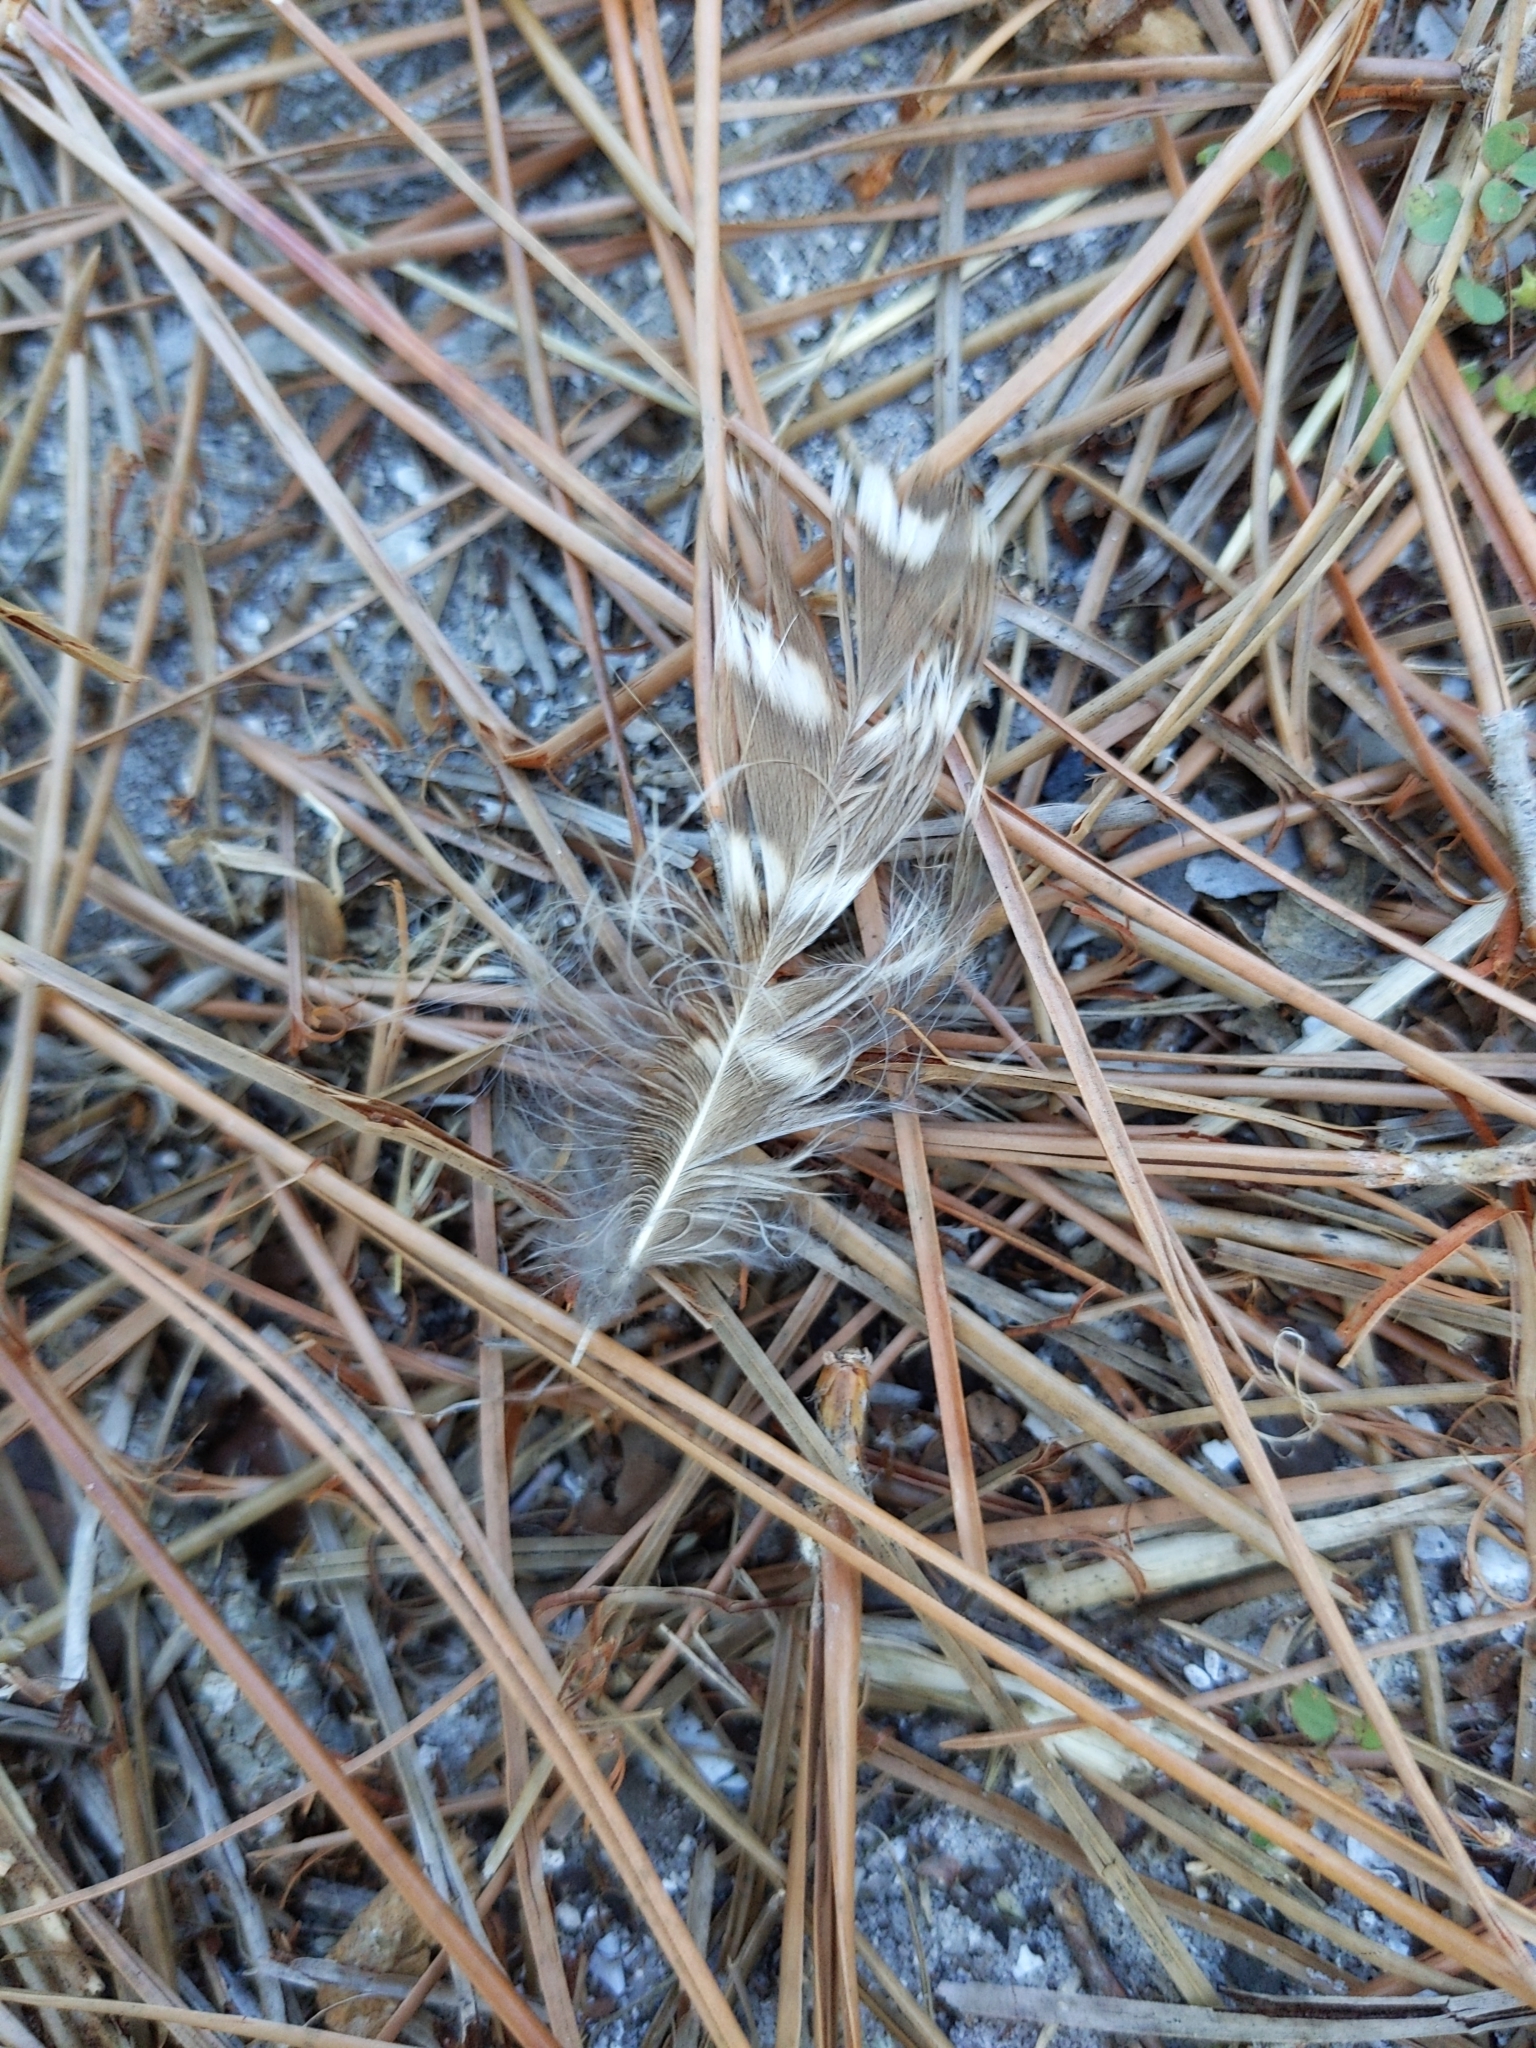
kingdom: Animalia
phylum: Chordata
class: Aves
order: Strigiformes
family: Strigidae
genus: Athene
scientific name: Athene cunicularia
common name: Burrowing owl
